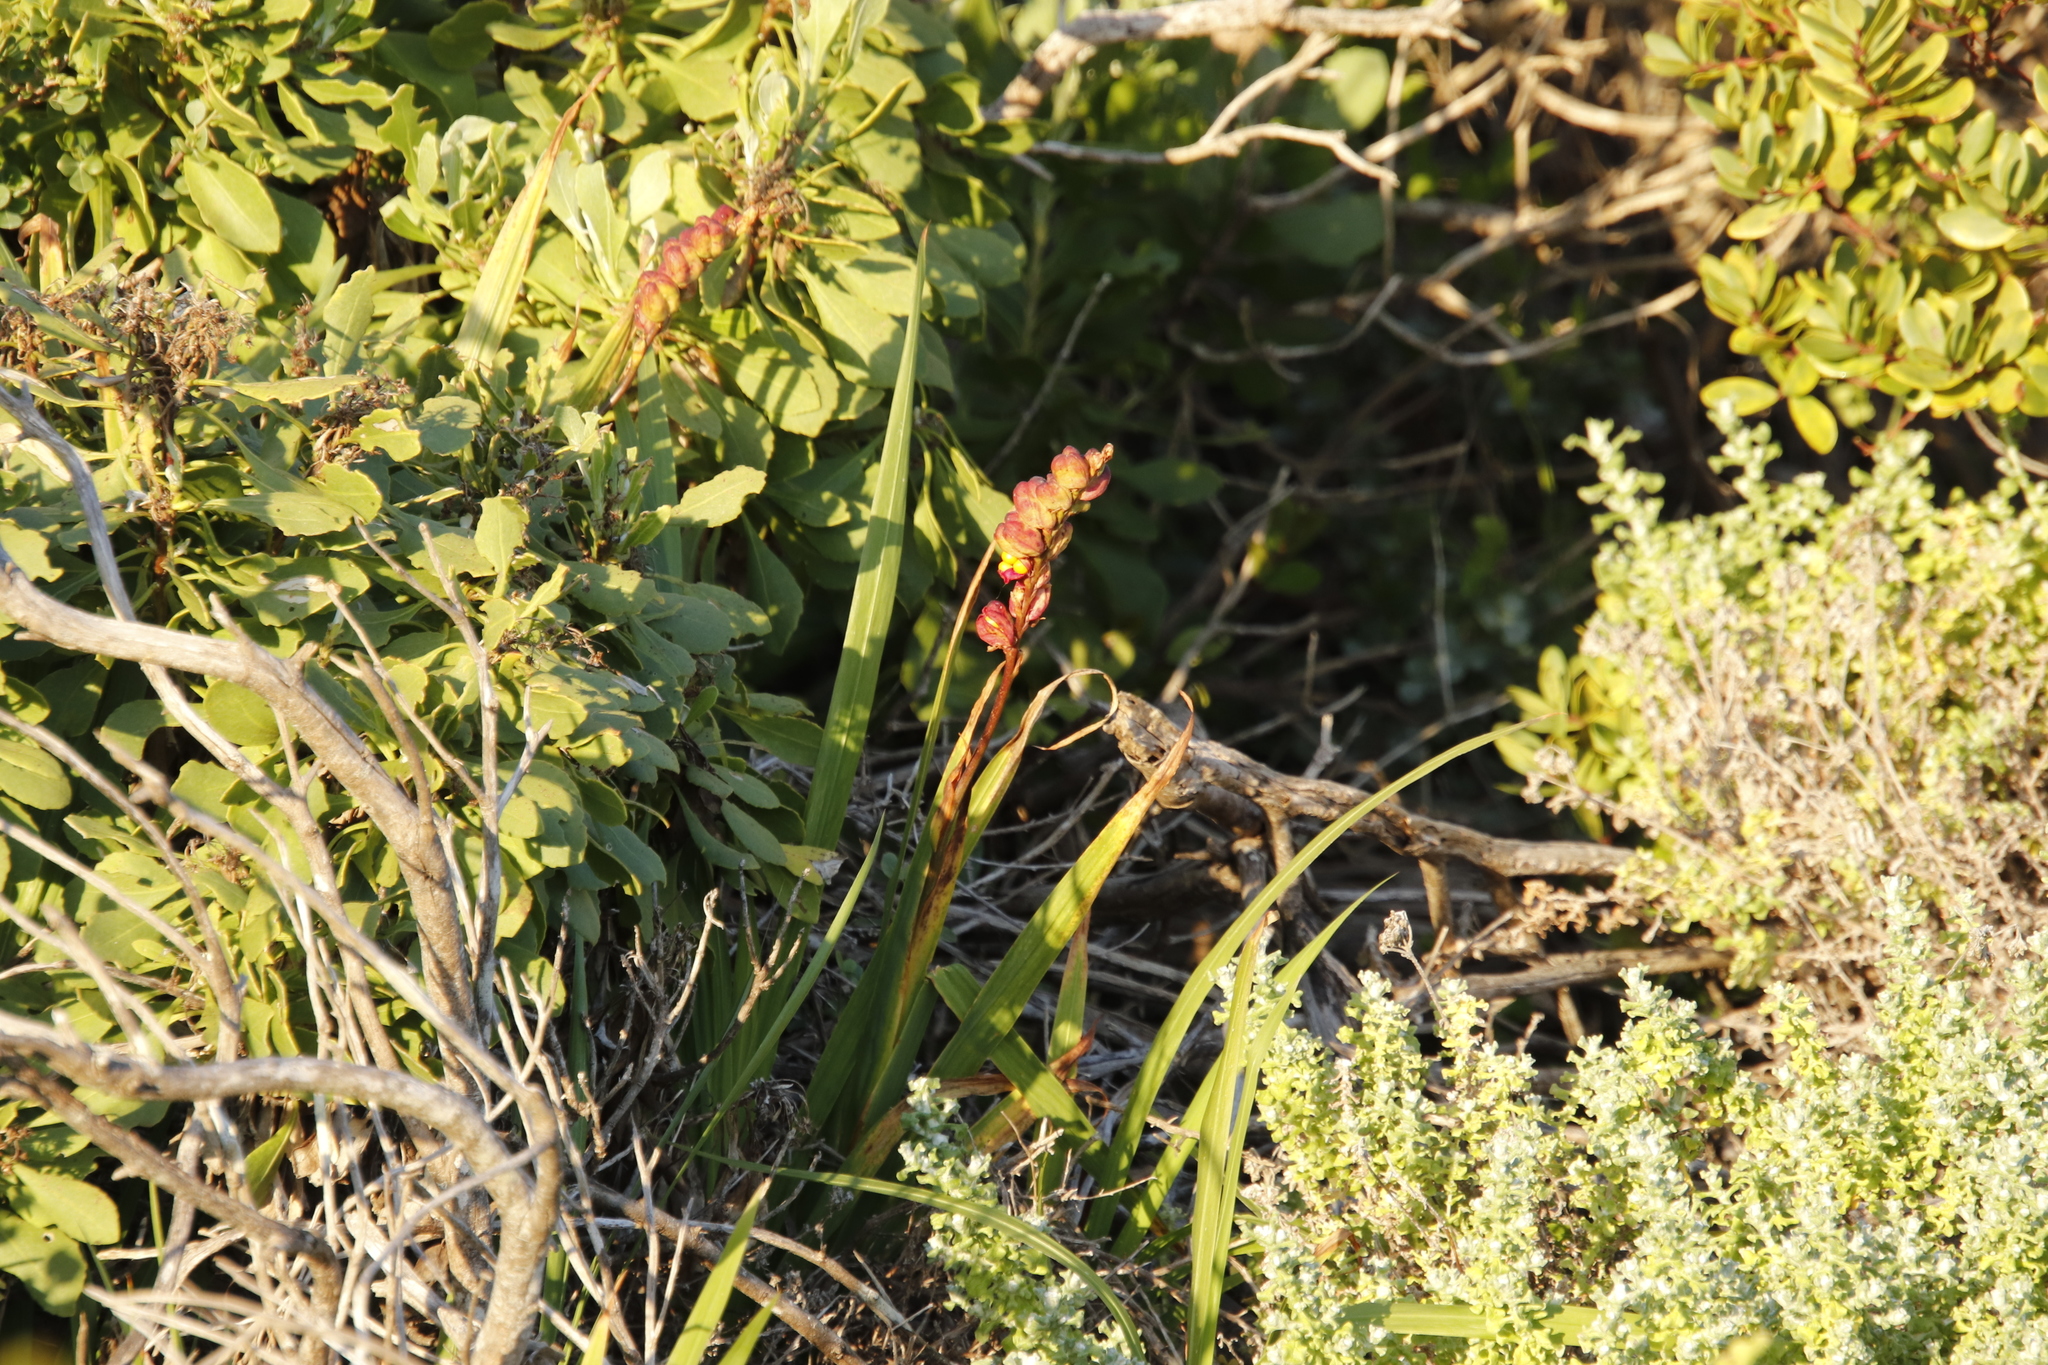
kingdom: Plantae
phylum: Tracheophyta
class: Liliopsida
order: Asparagales
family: Iridaceae
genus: Chasmanthe
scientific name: Chasmanthe aethiopica
